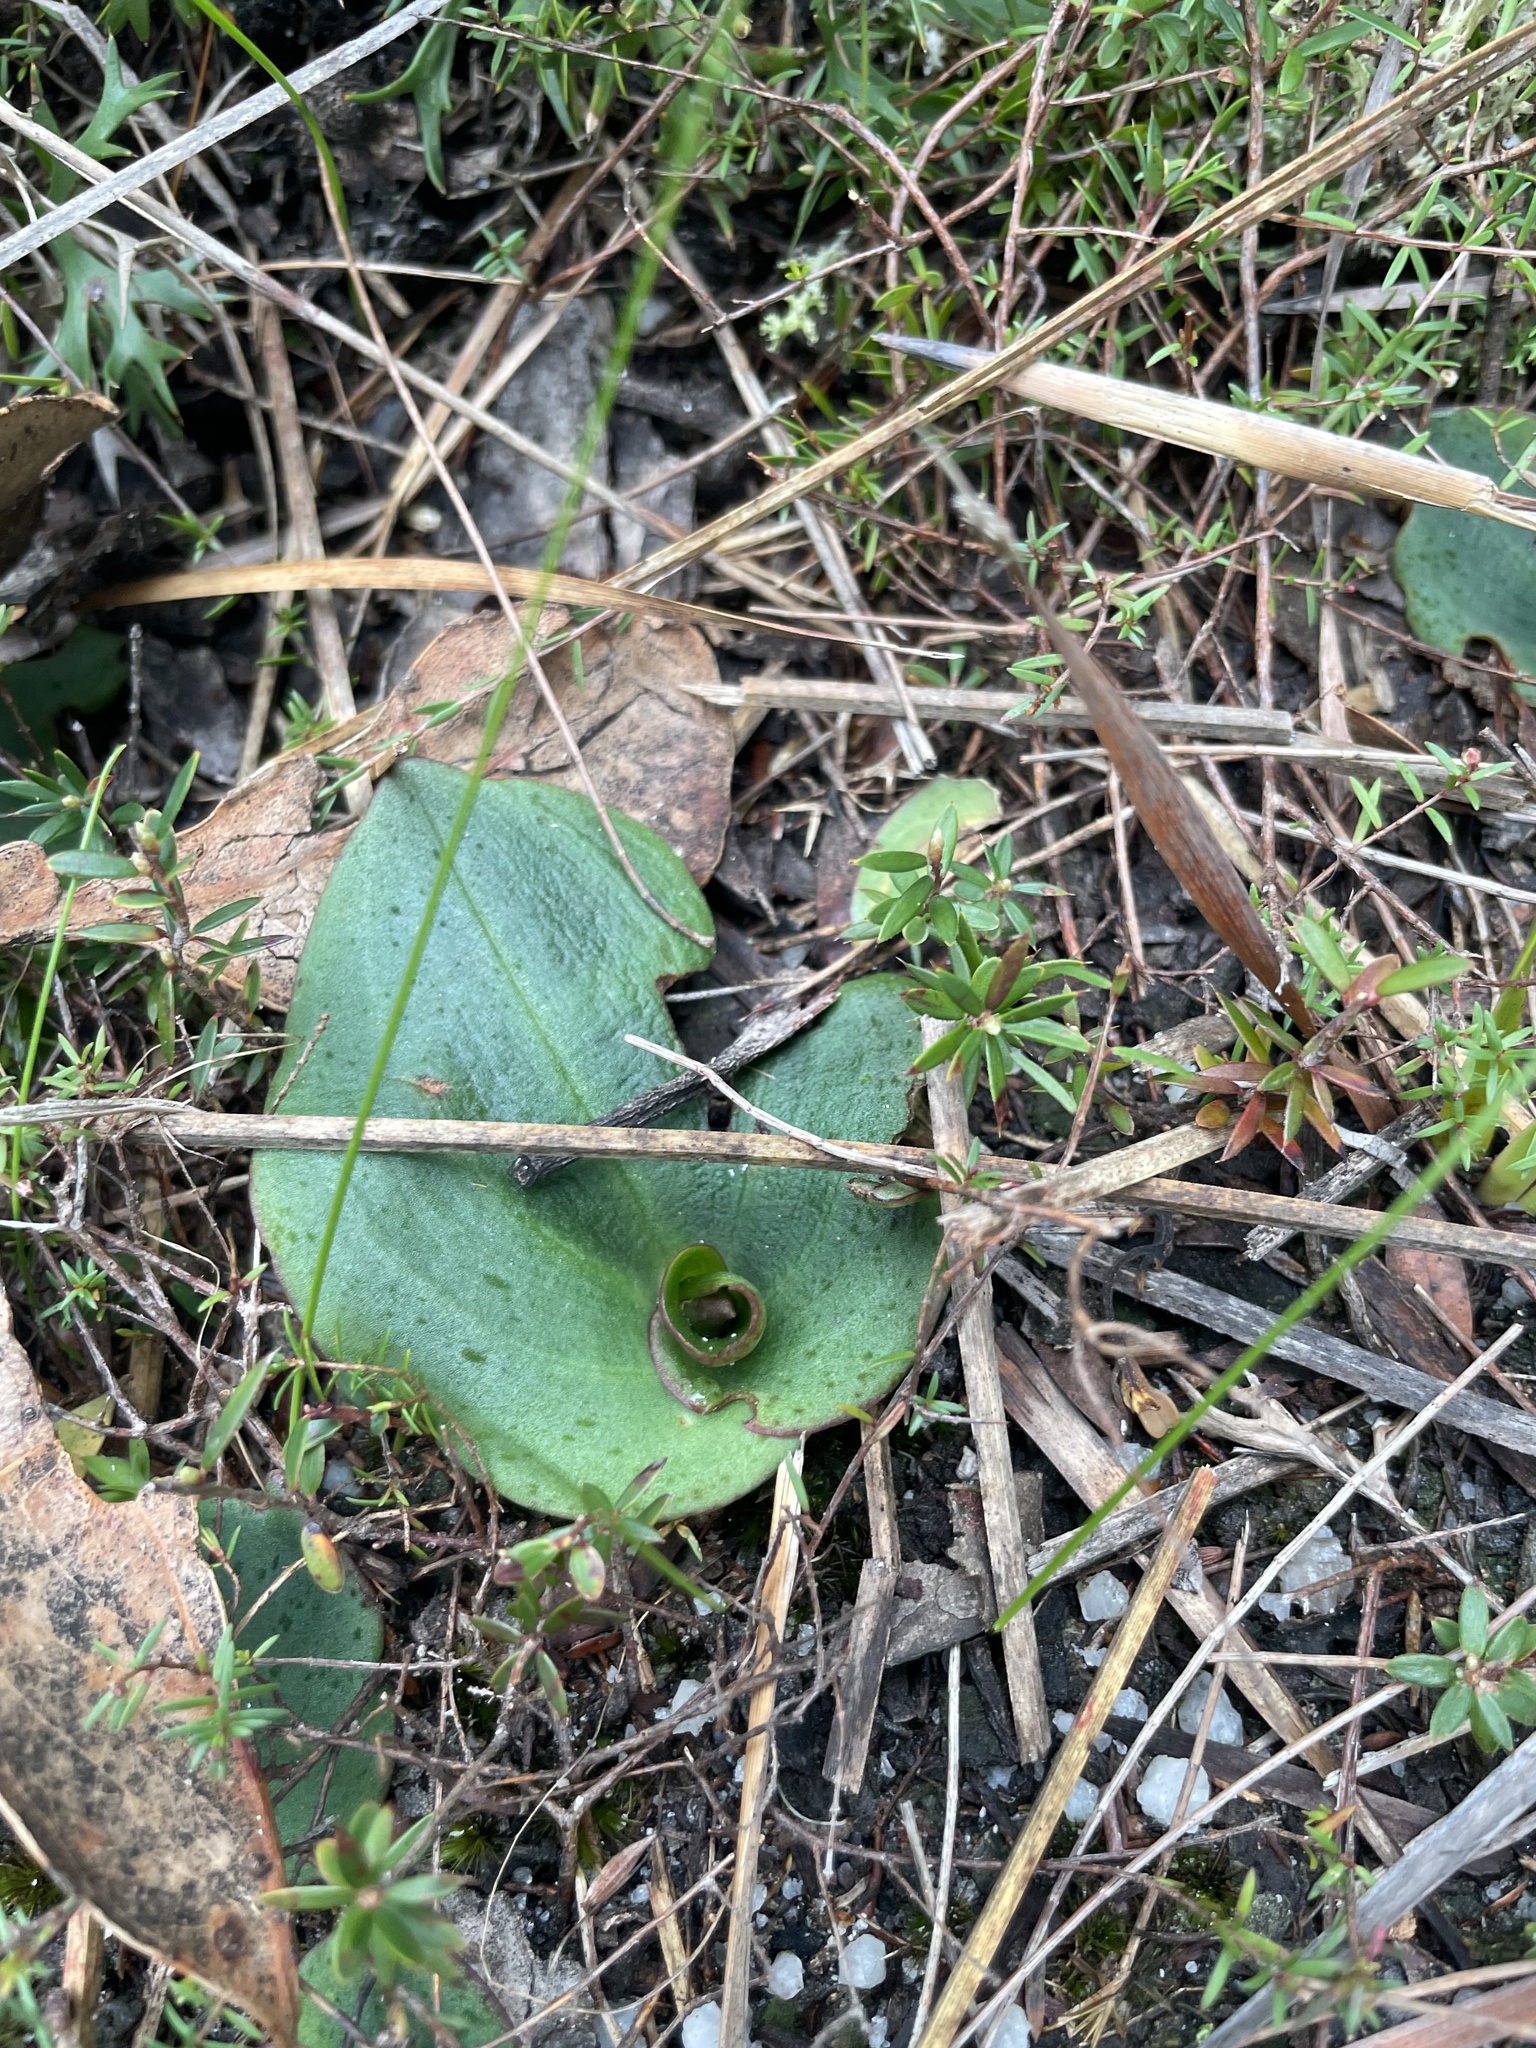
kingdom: Plantae
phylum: Tracheophyta
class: Liliopsida
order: Asparagales
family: Orchidaceae
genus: Pyrorchis
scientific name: Pyrorchis nigricans
